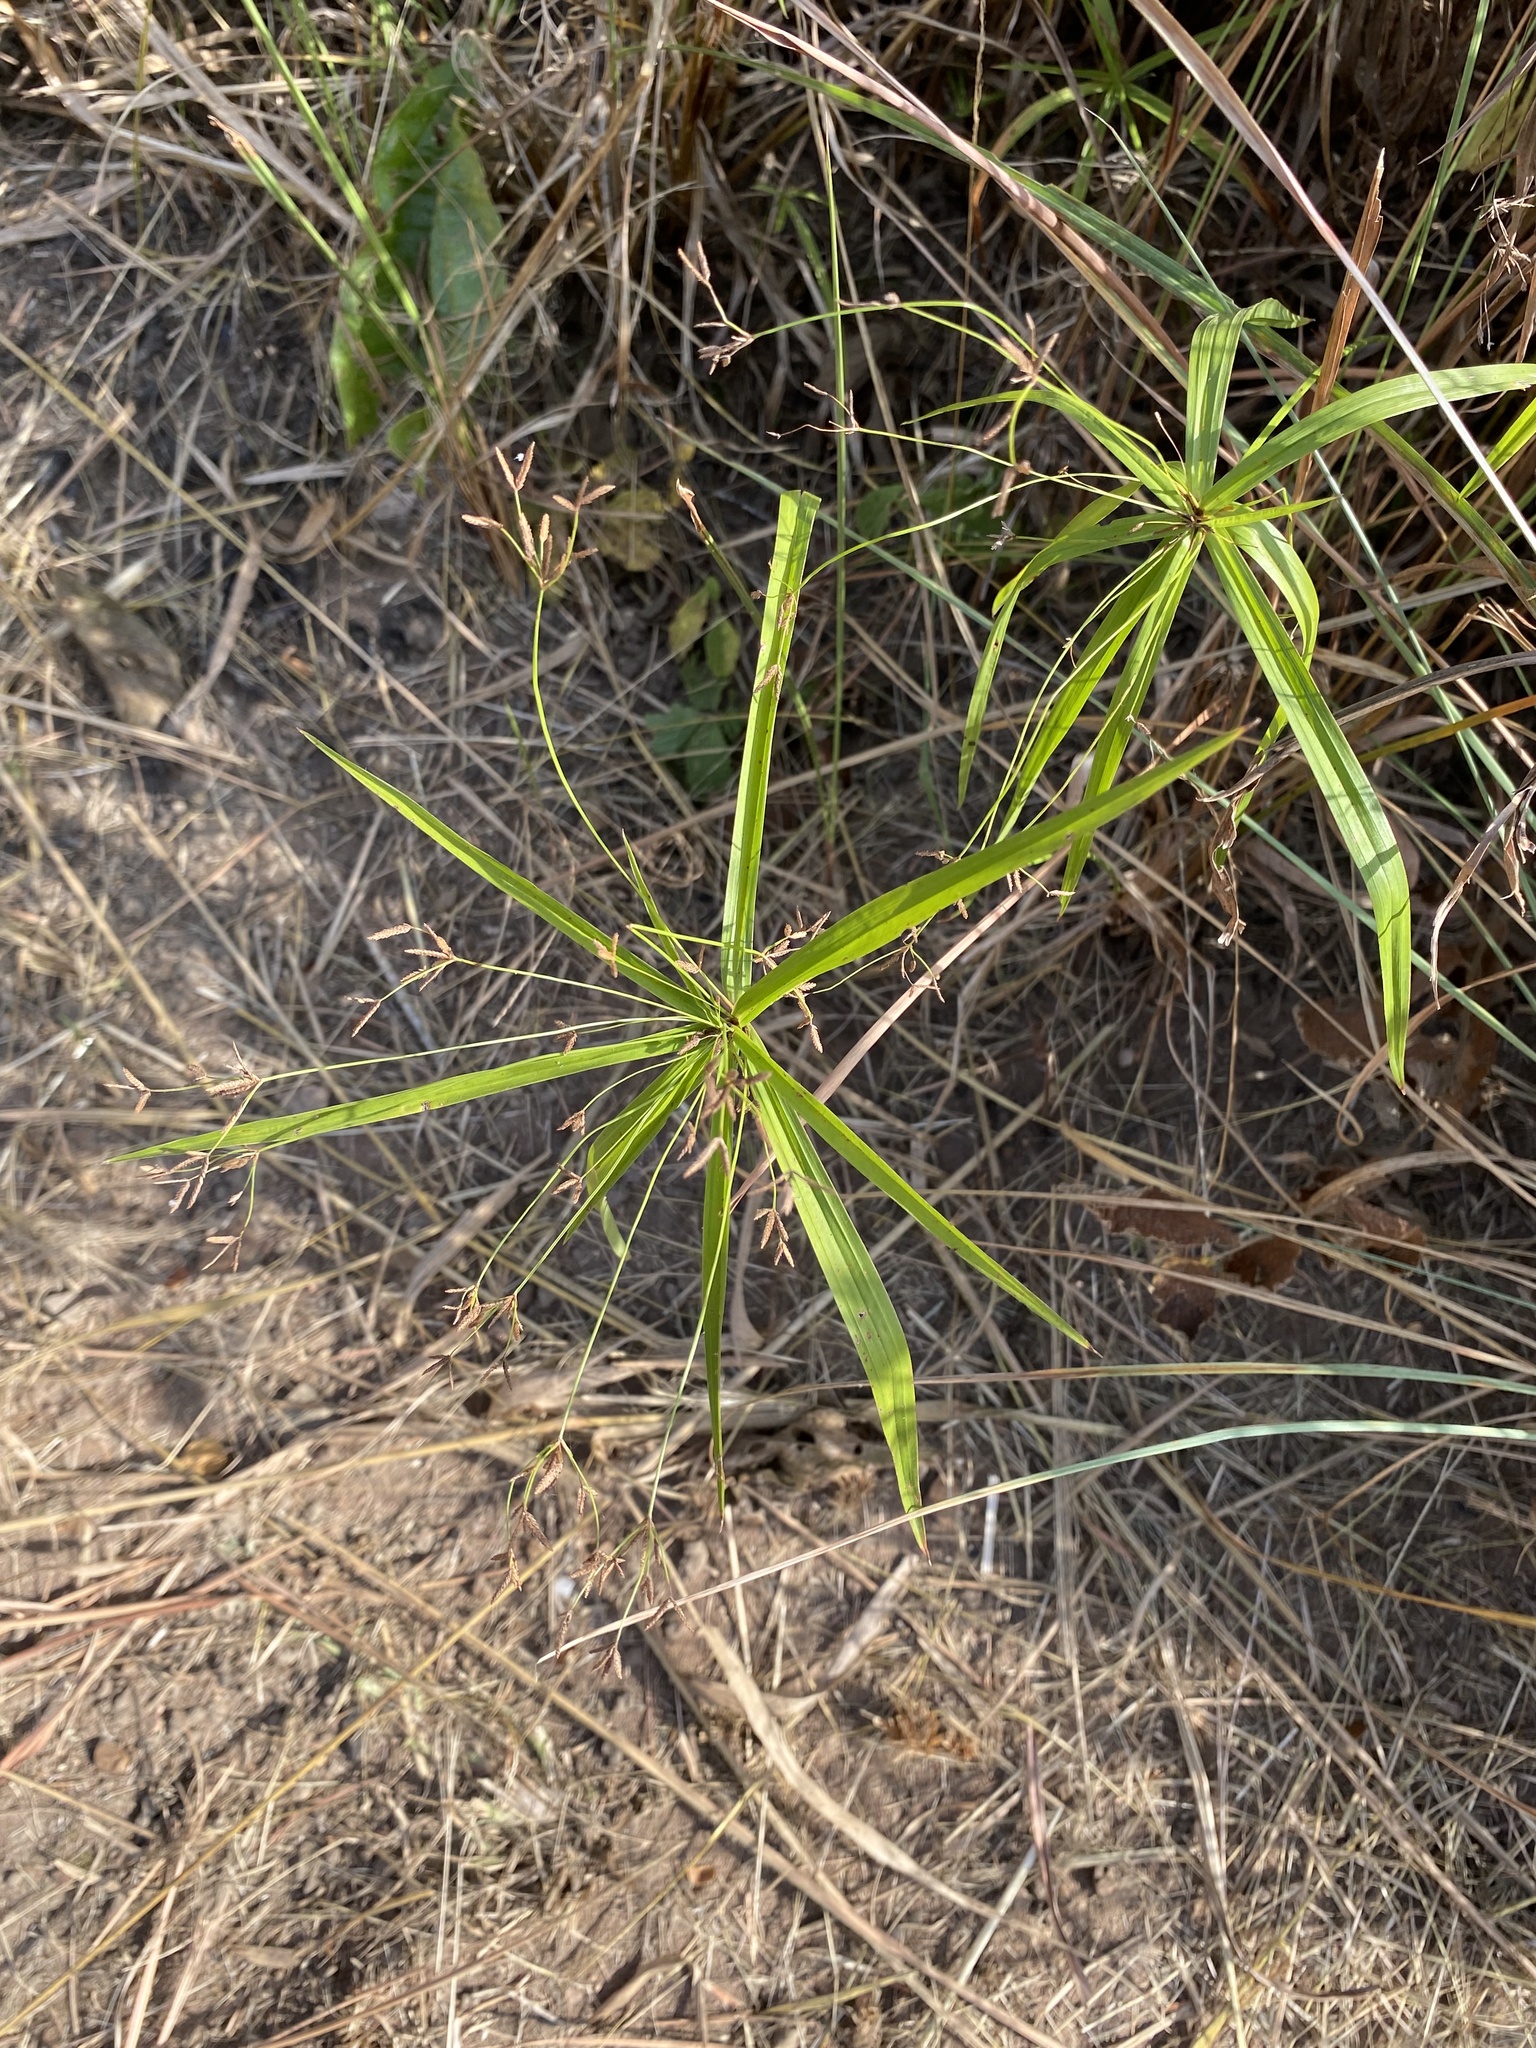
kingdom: Plantae
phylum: Tracheophyta
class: Liliopsida
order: Poales
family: Cyperaceae
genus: Cyperus
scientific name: Cyperus albostriatus
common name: Dwarf umbrella-grass
